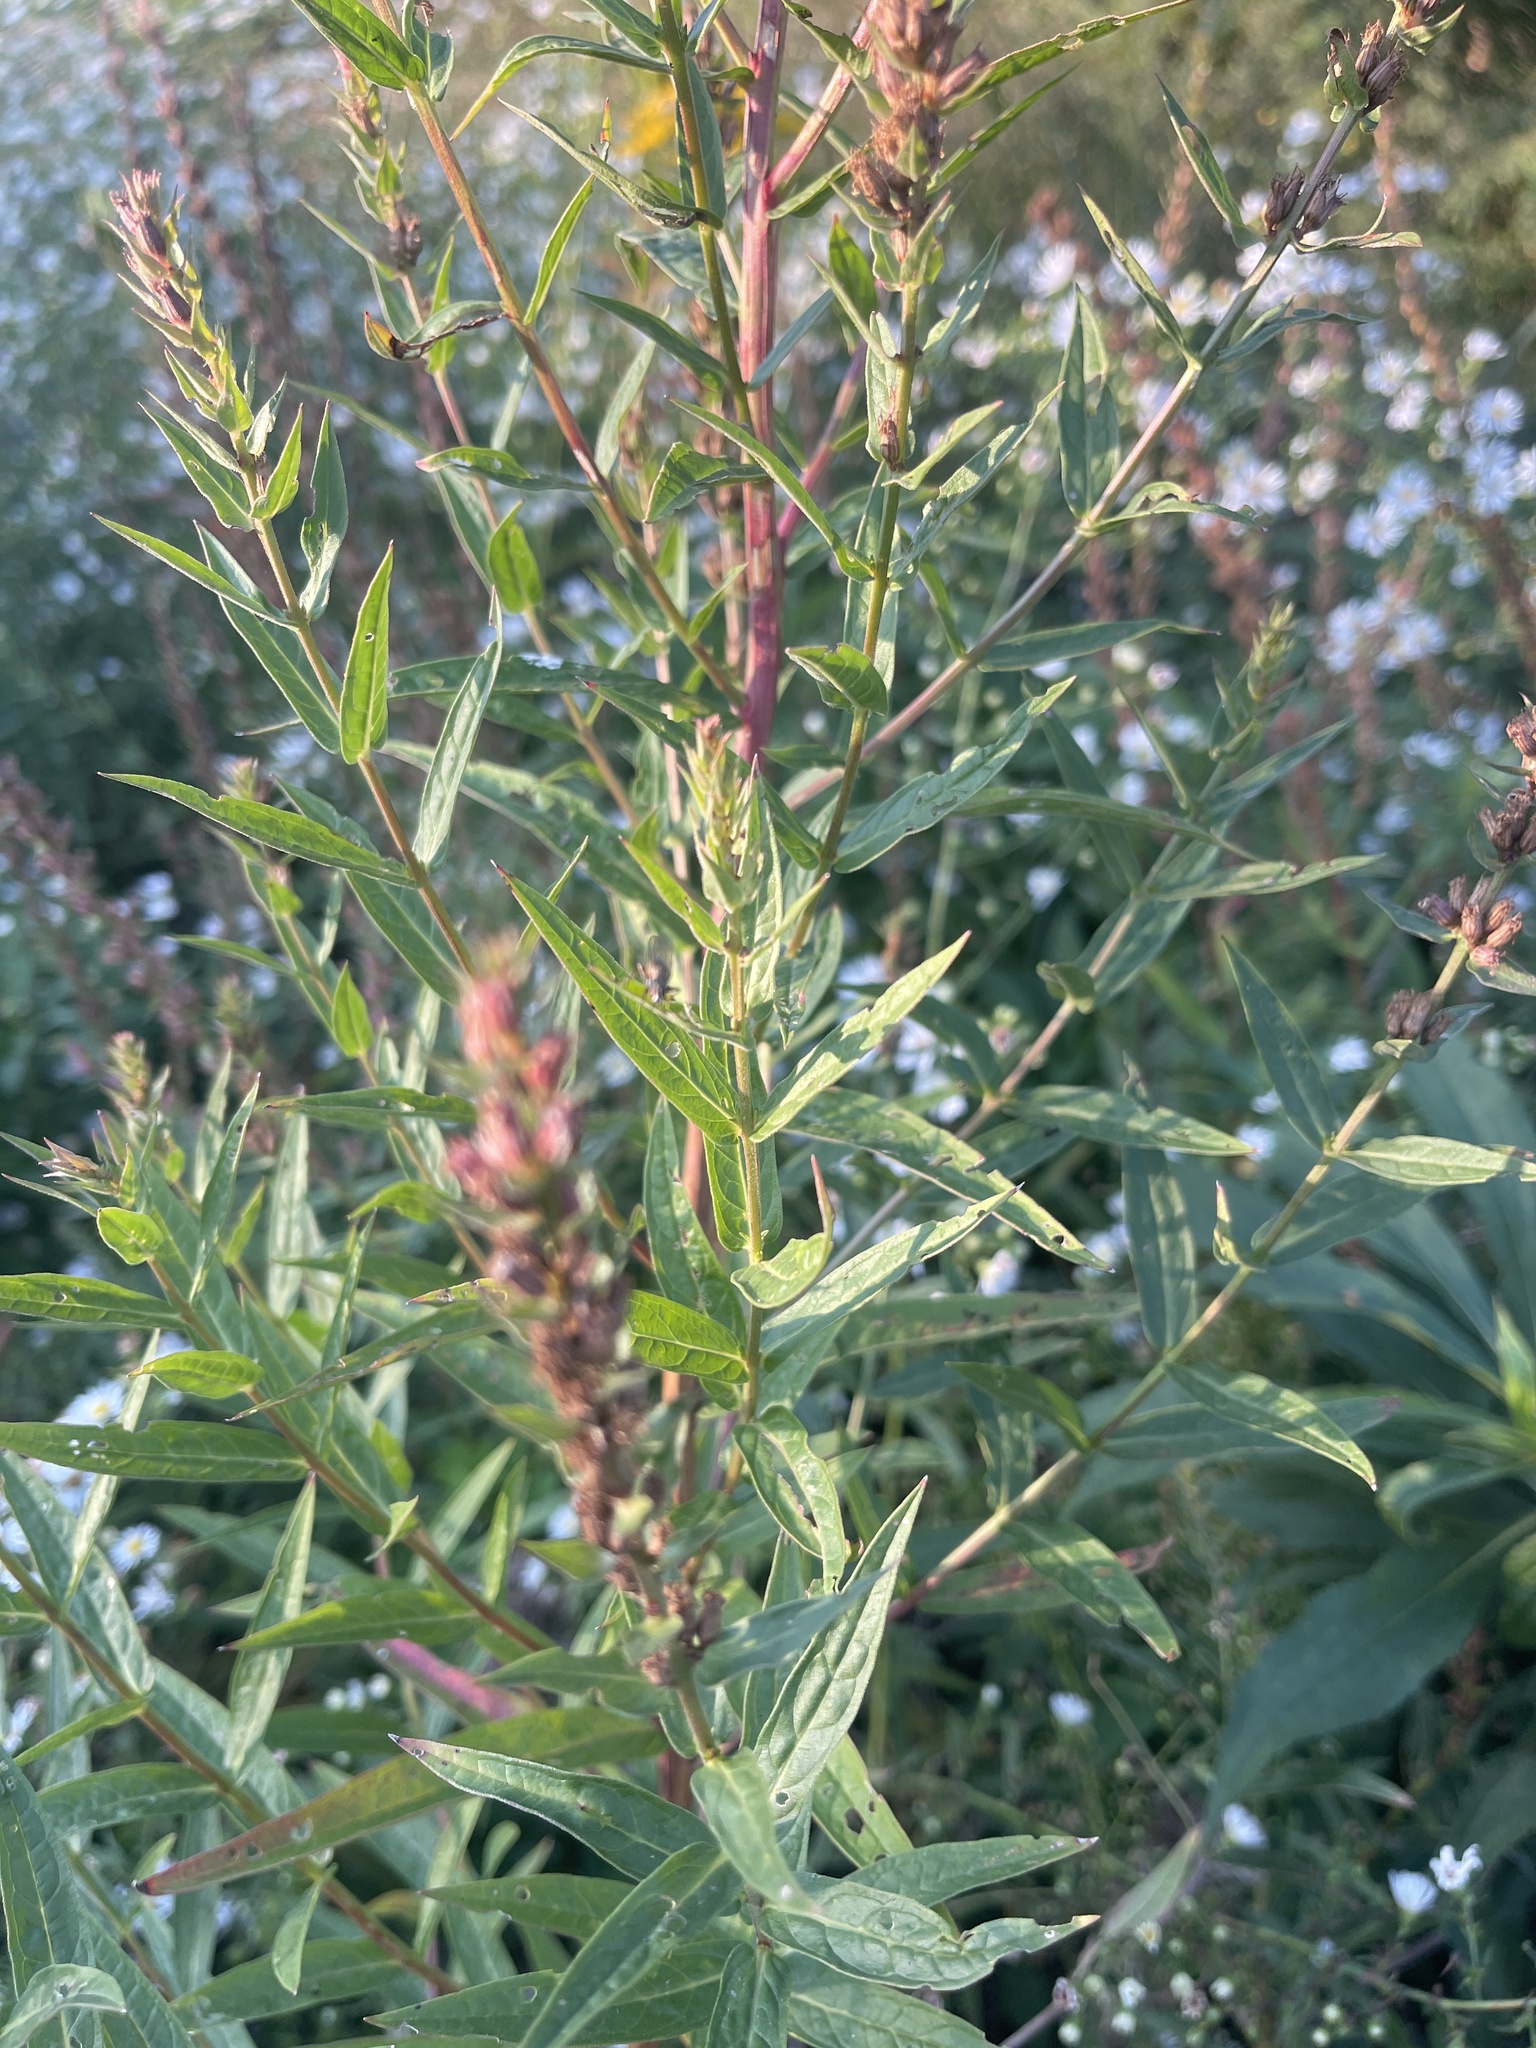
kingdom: Plantae
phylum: Tracheophyta
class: Magnoliopsida
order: Myrtales
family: Lythraceae
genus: Lythrum
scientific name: Lythrum salicaria
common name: Purple loosestrife
